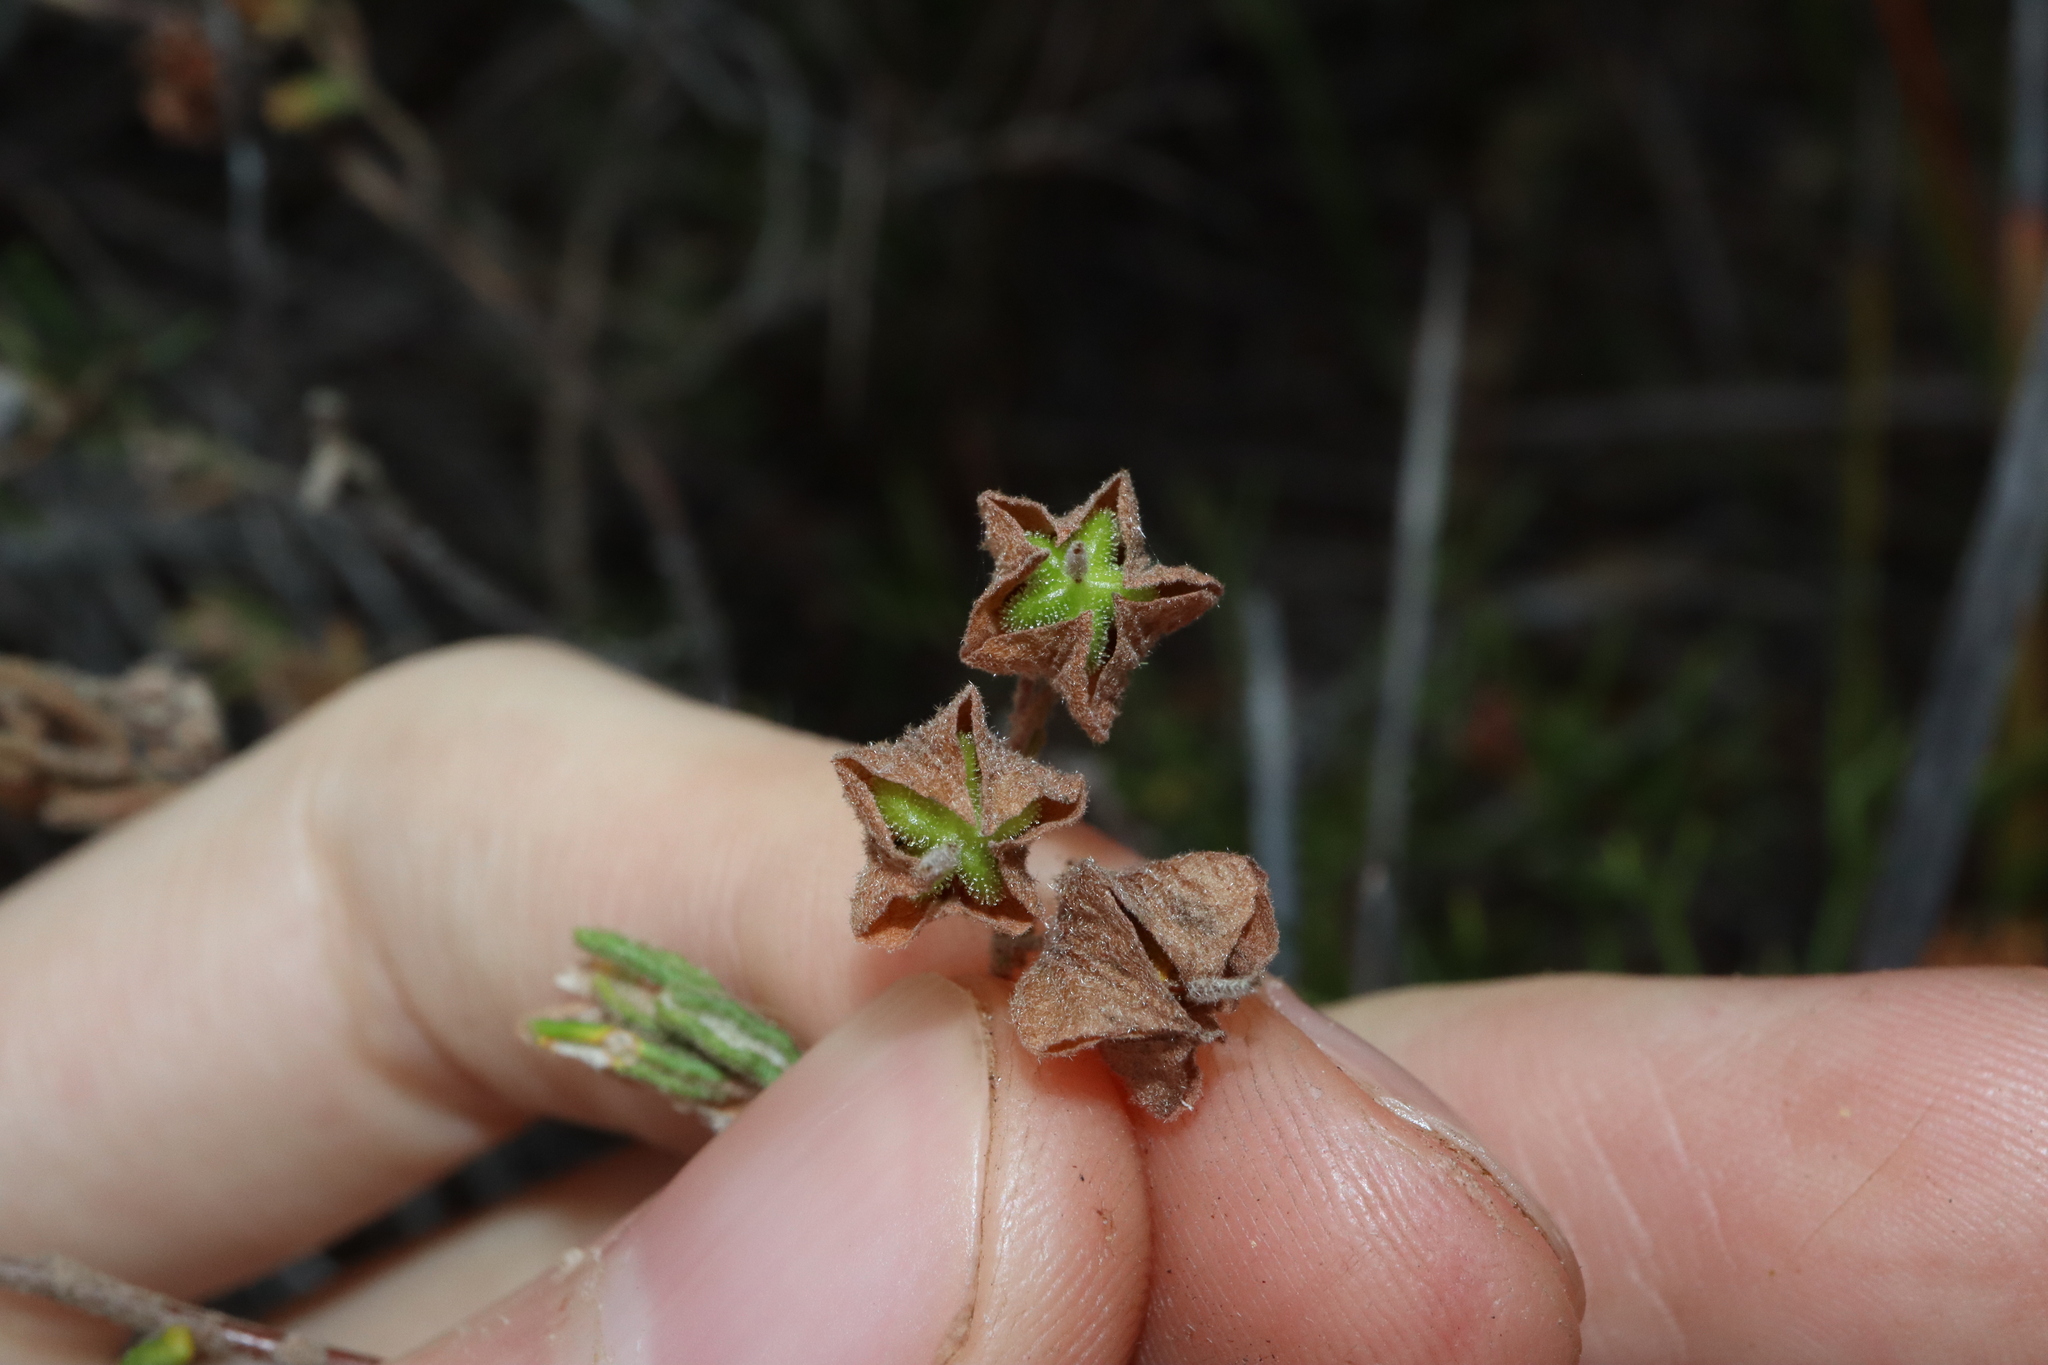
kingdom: Plantae
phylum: Tracheophyta
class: Magnoliopsida
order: Malvales
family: Malvaceae
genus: Guichenotia
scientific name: Guichenotia micrantha
